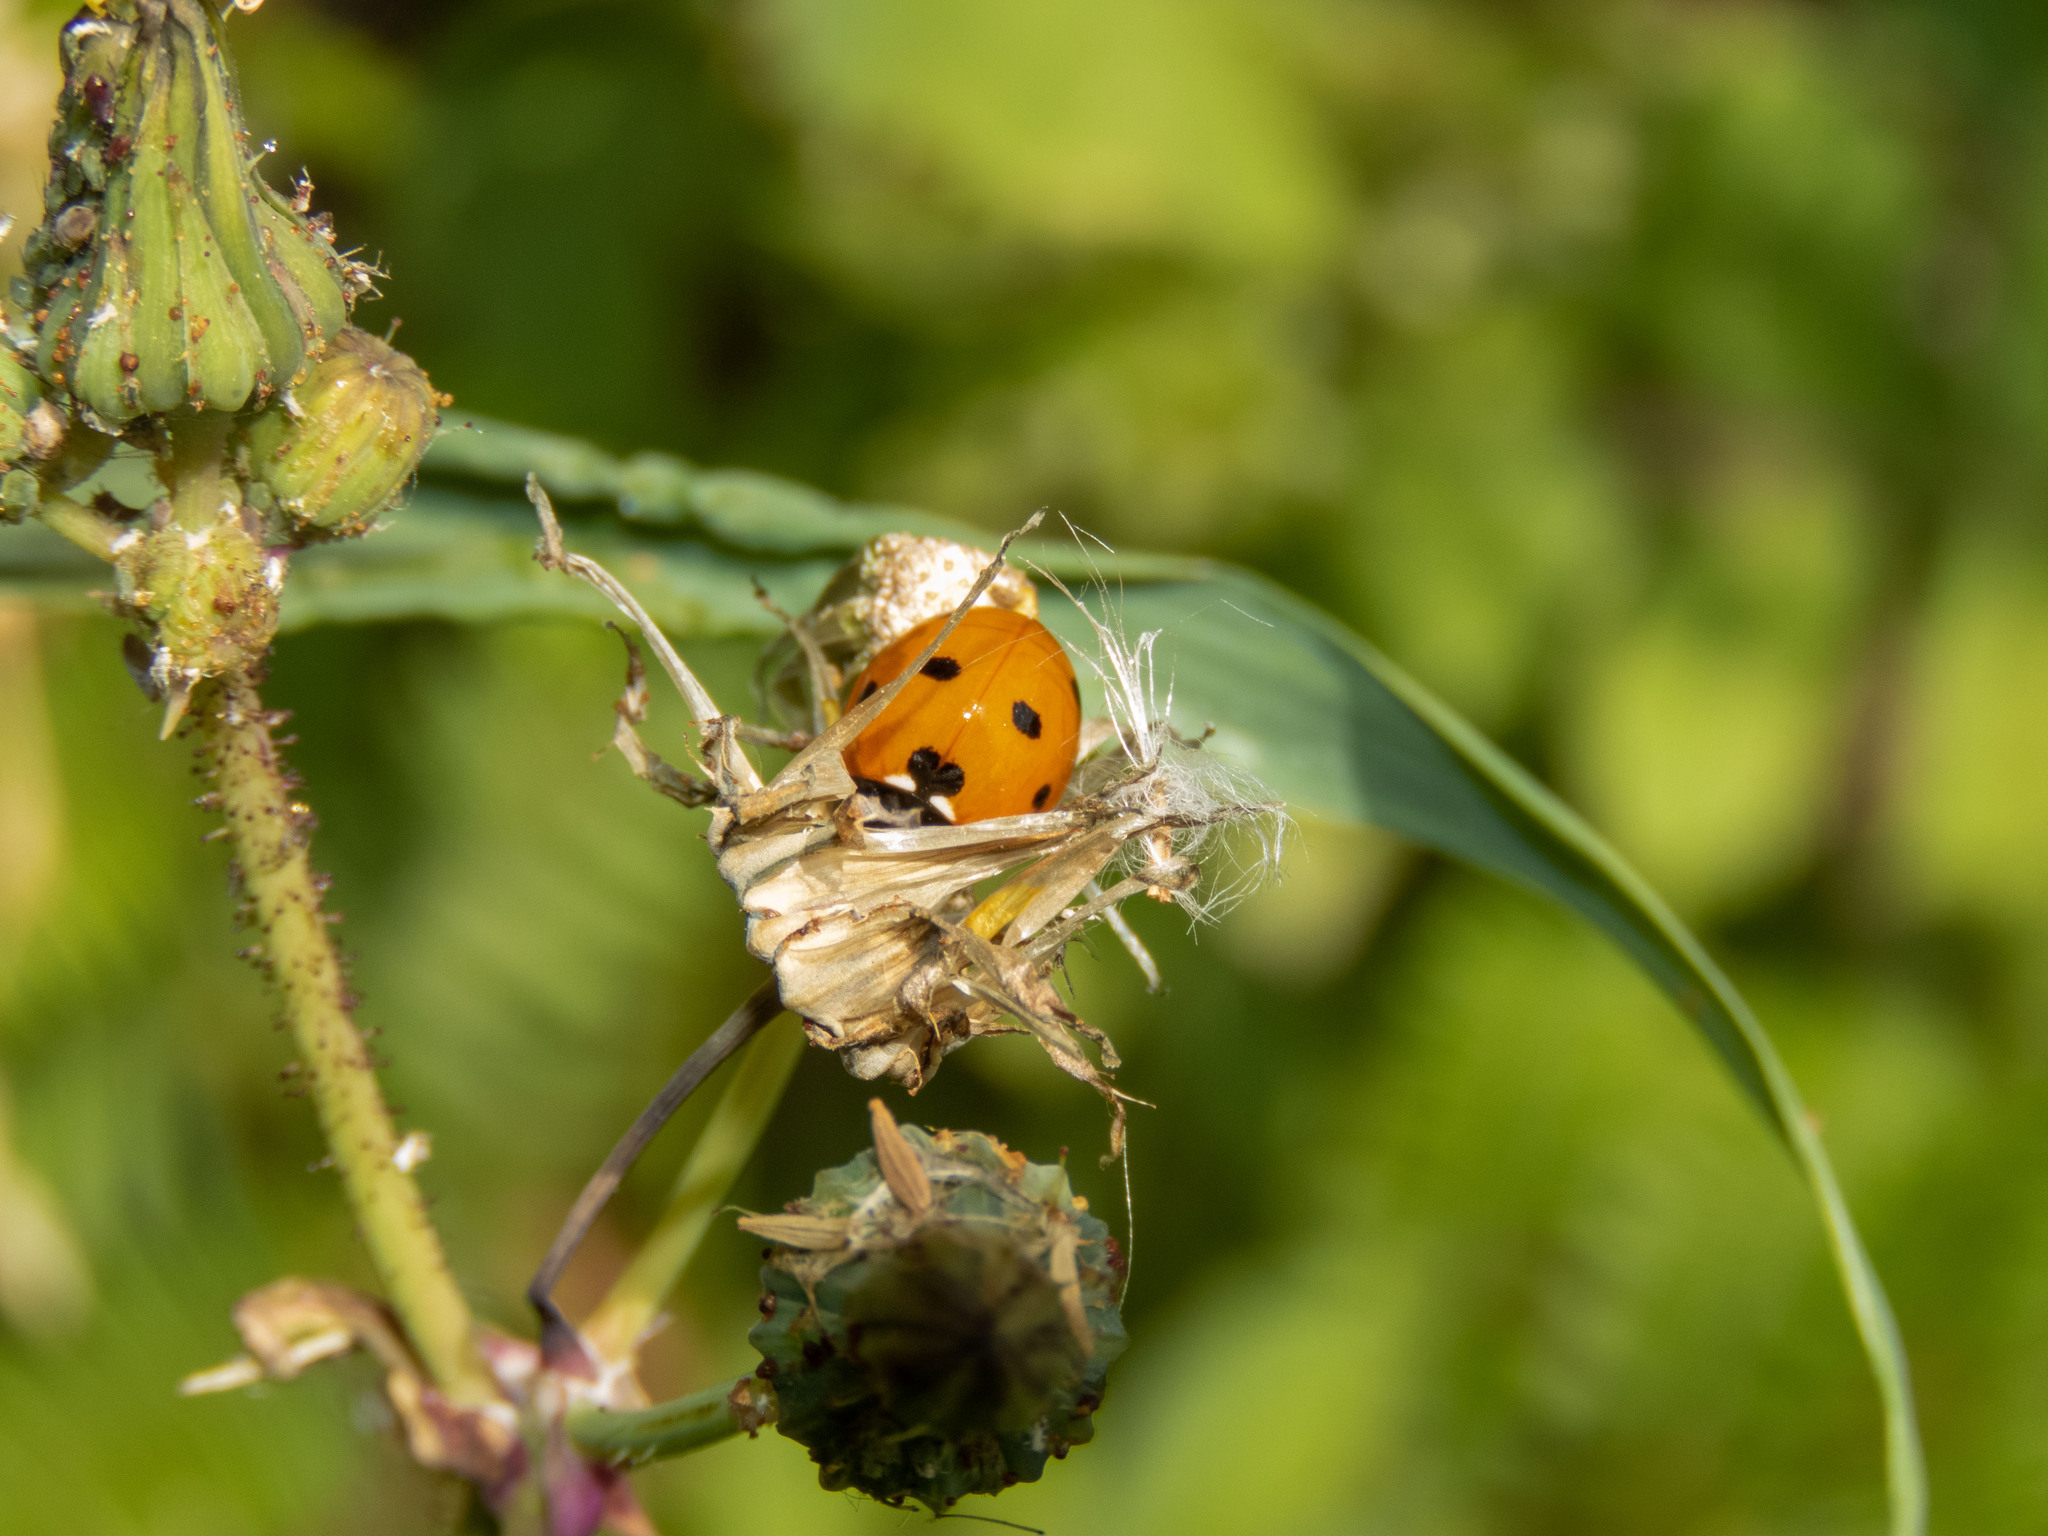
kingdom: Animalia
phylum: Arthropoda
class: Insecta
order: Coleoptera
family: Coccinellidae
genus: Coccinella
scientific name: Coccinella septempunctata
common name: Sevenspotted lady beetle
